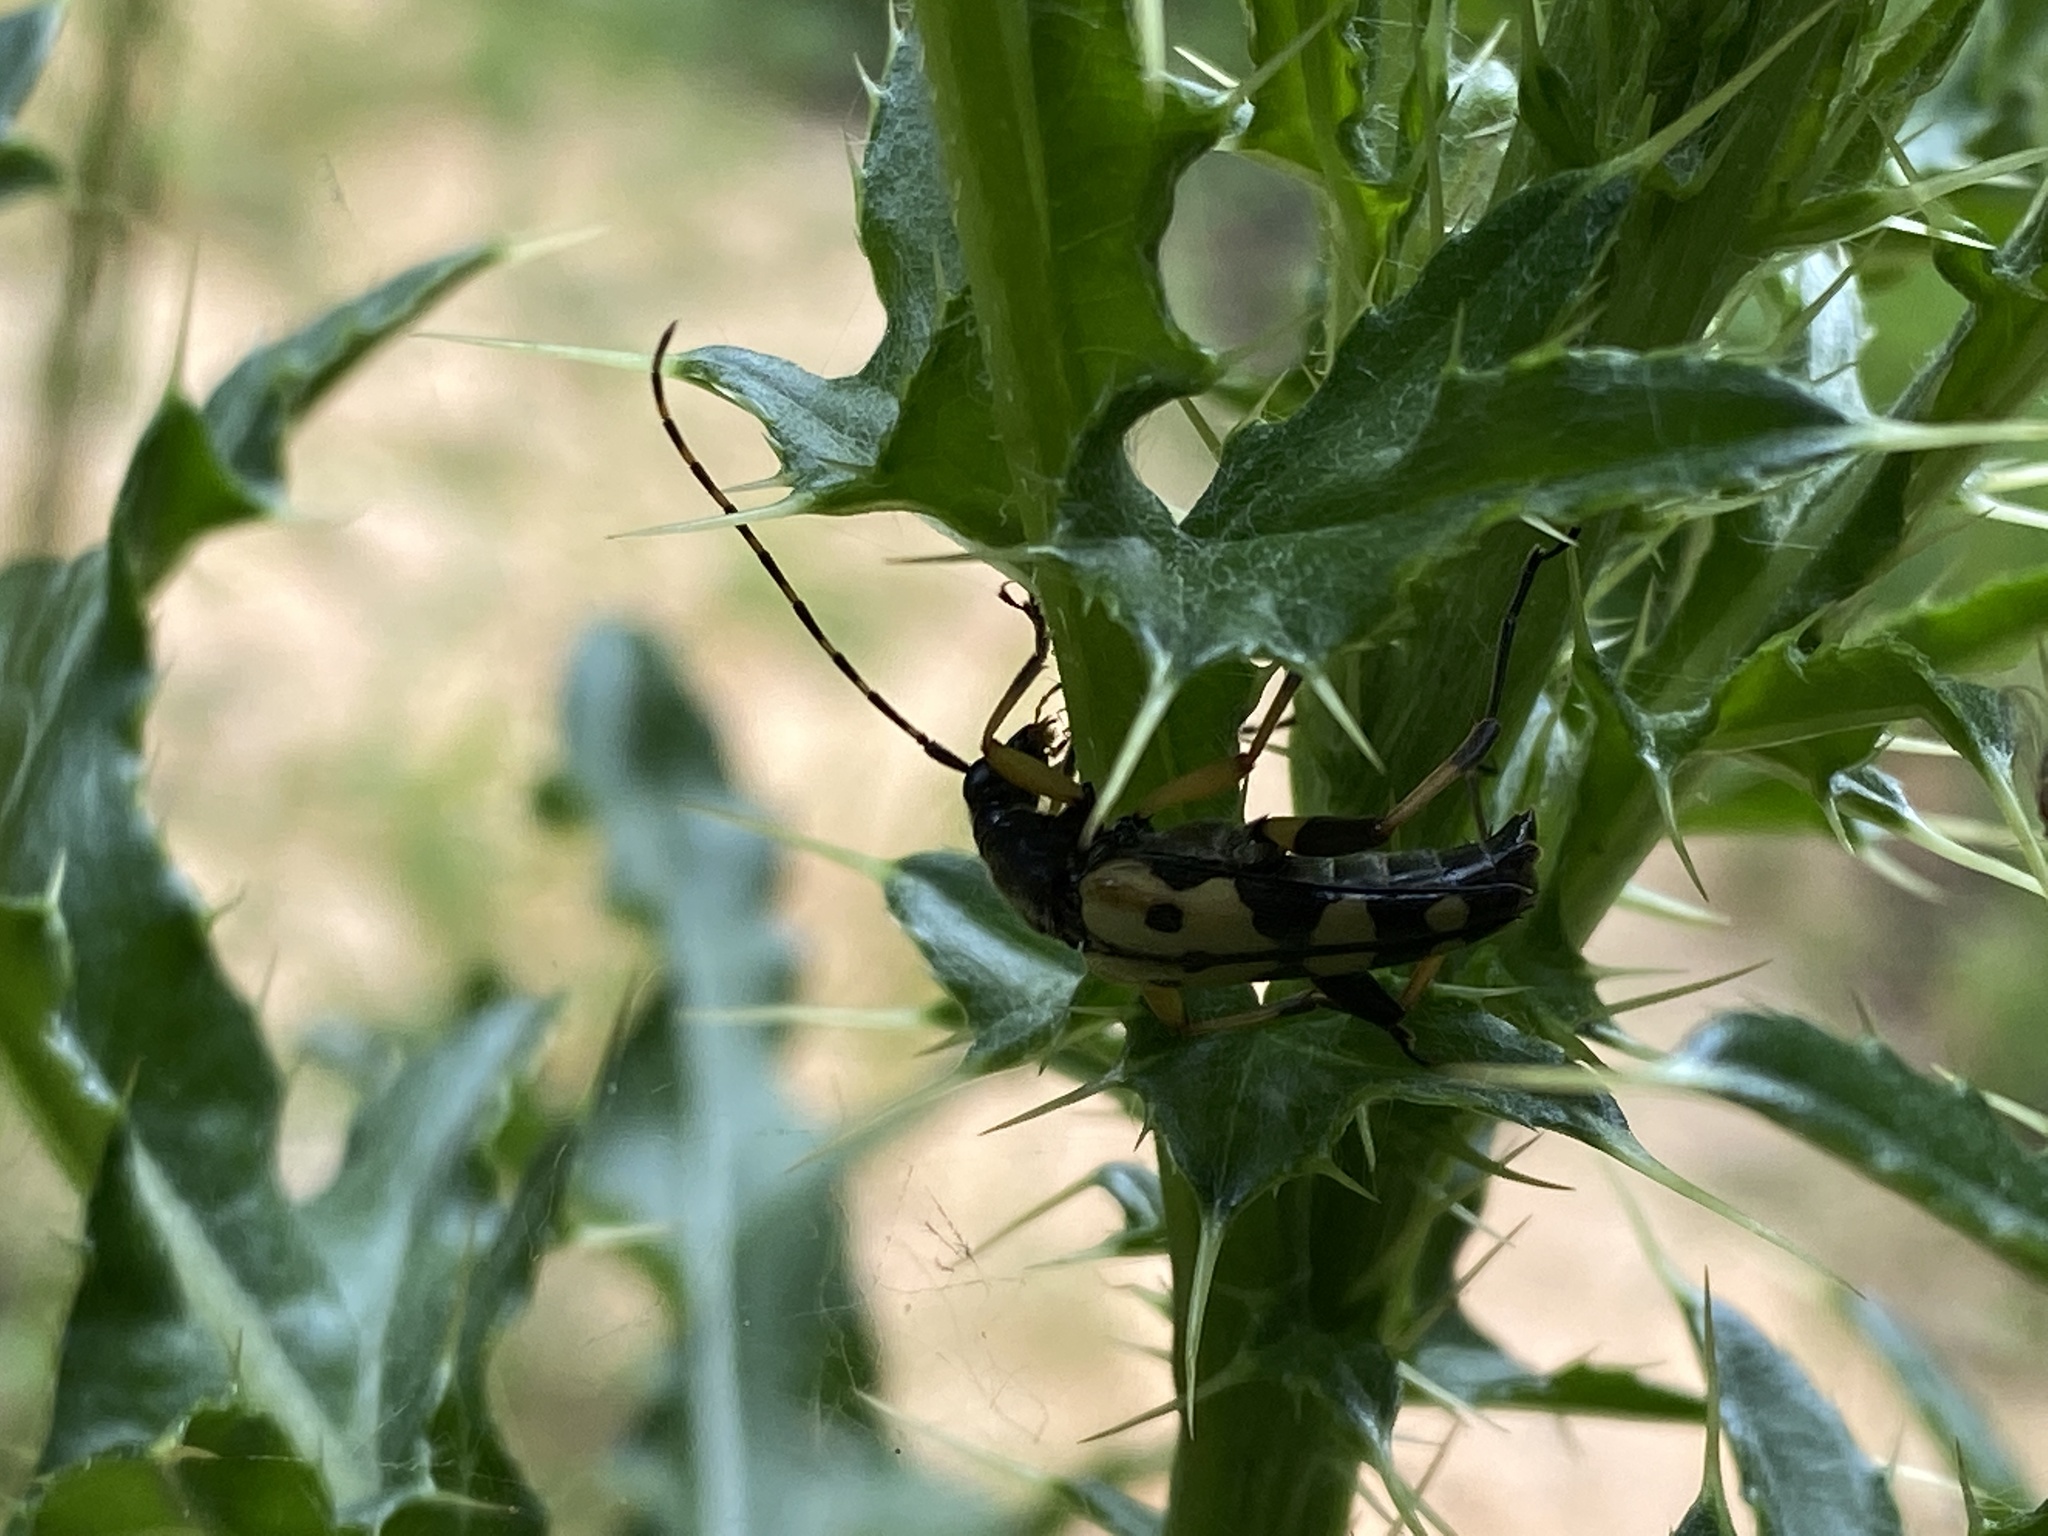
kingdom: Animalia
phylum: Arthropoda
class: Insecta
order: Coleoptera
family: Cerambycidae
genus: Rutpela
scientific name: Rutpela maculata
